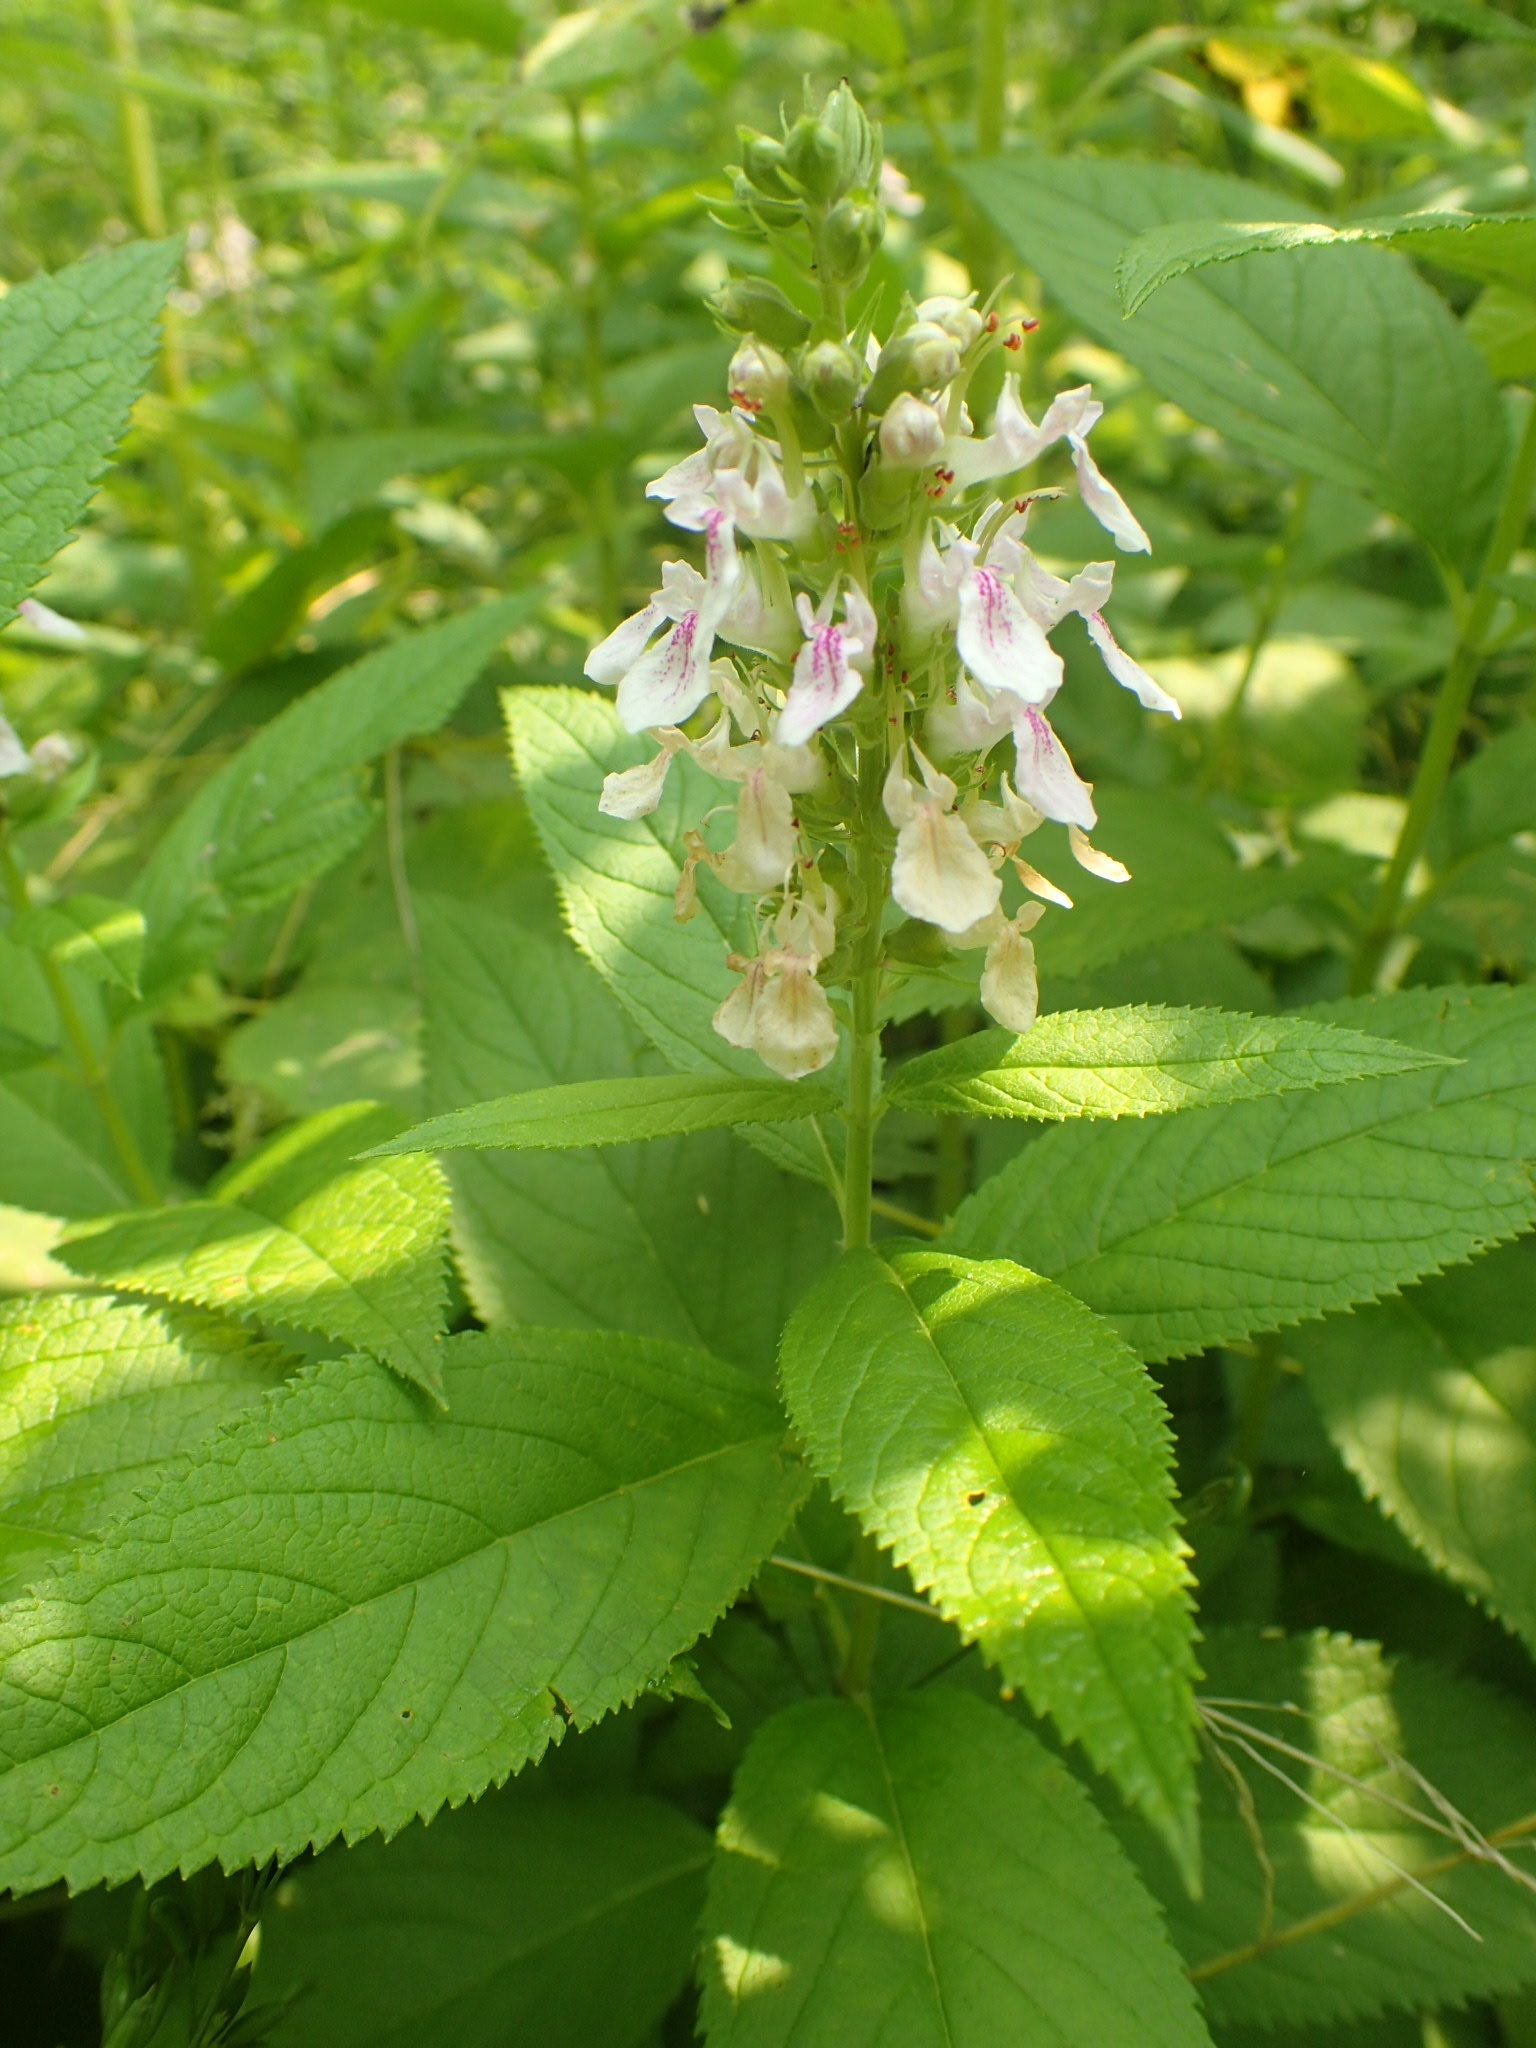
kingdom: Plantae
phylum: Tracheophyta
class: Magnoliopsida
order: Lamiales
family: Lamiaceae
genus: Teucrium
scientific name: Teucrium canadense
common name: American germander
